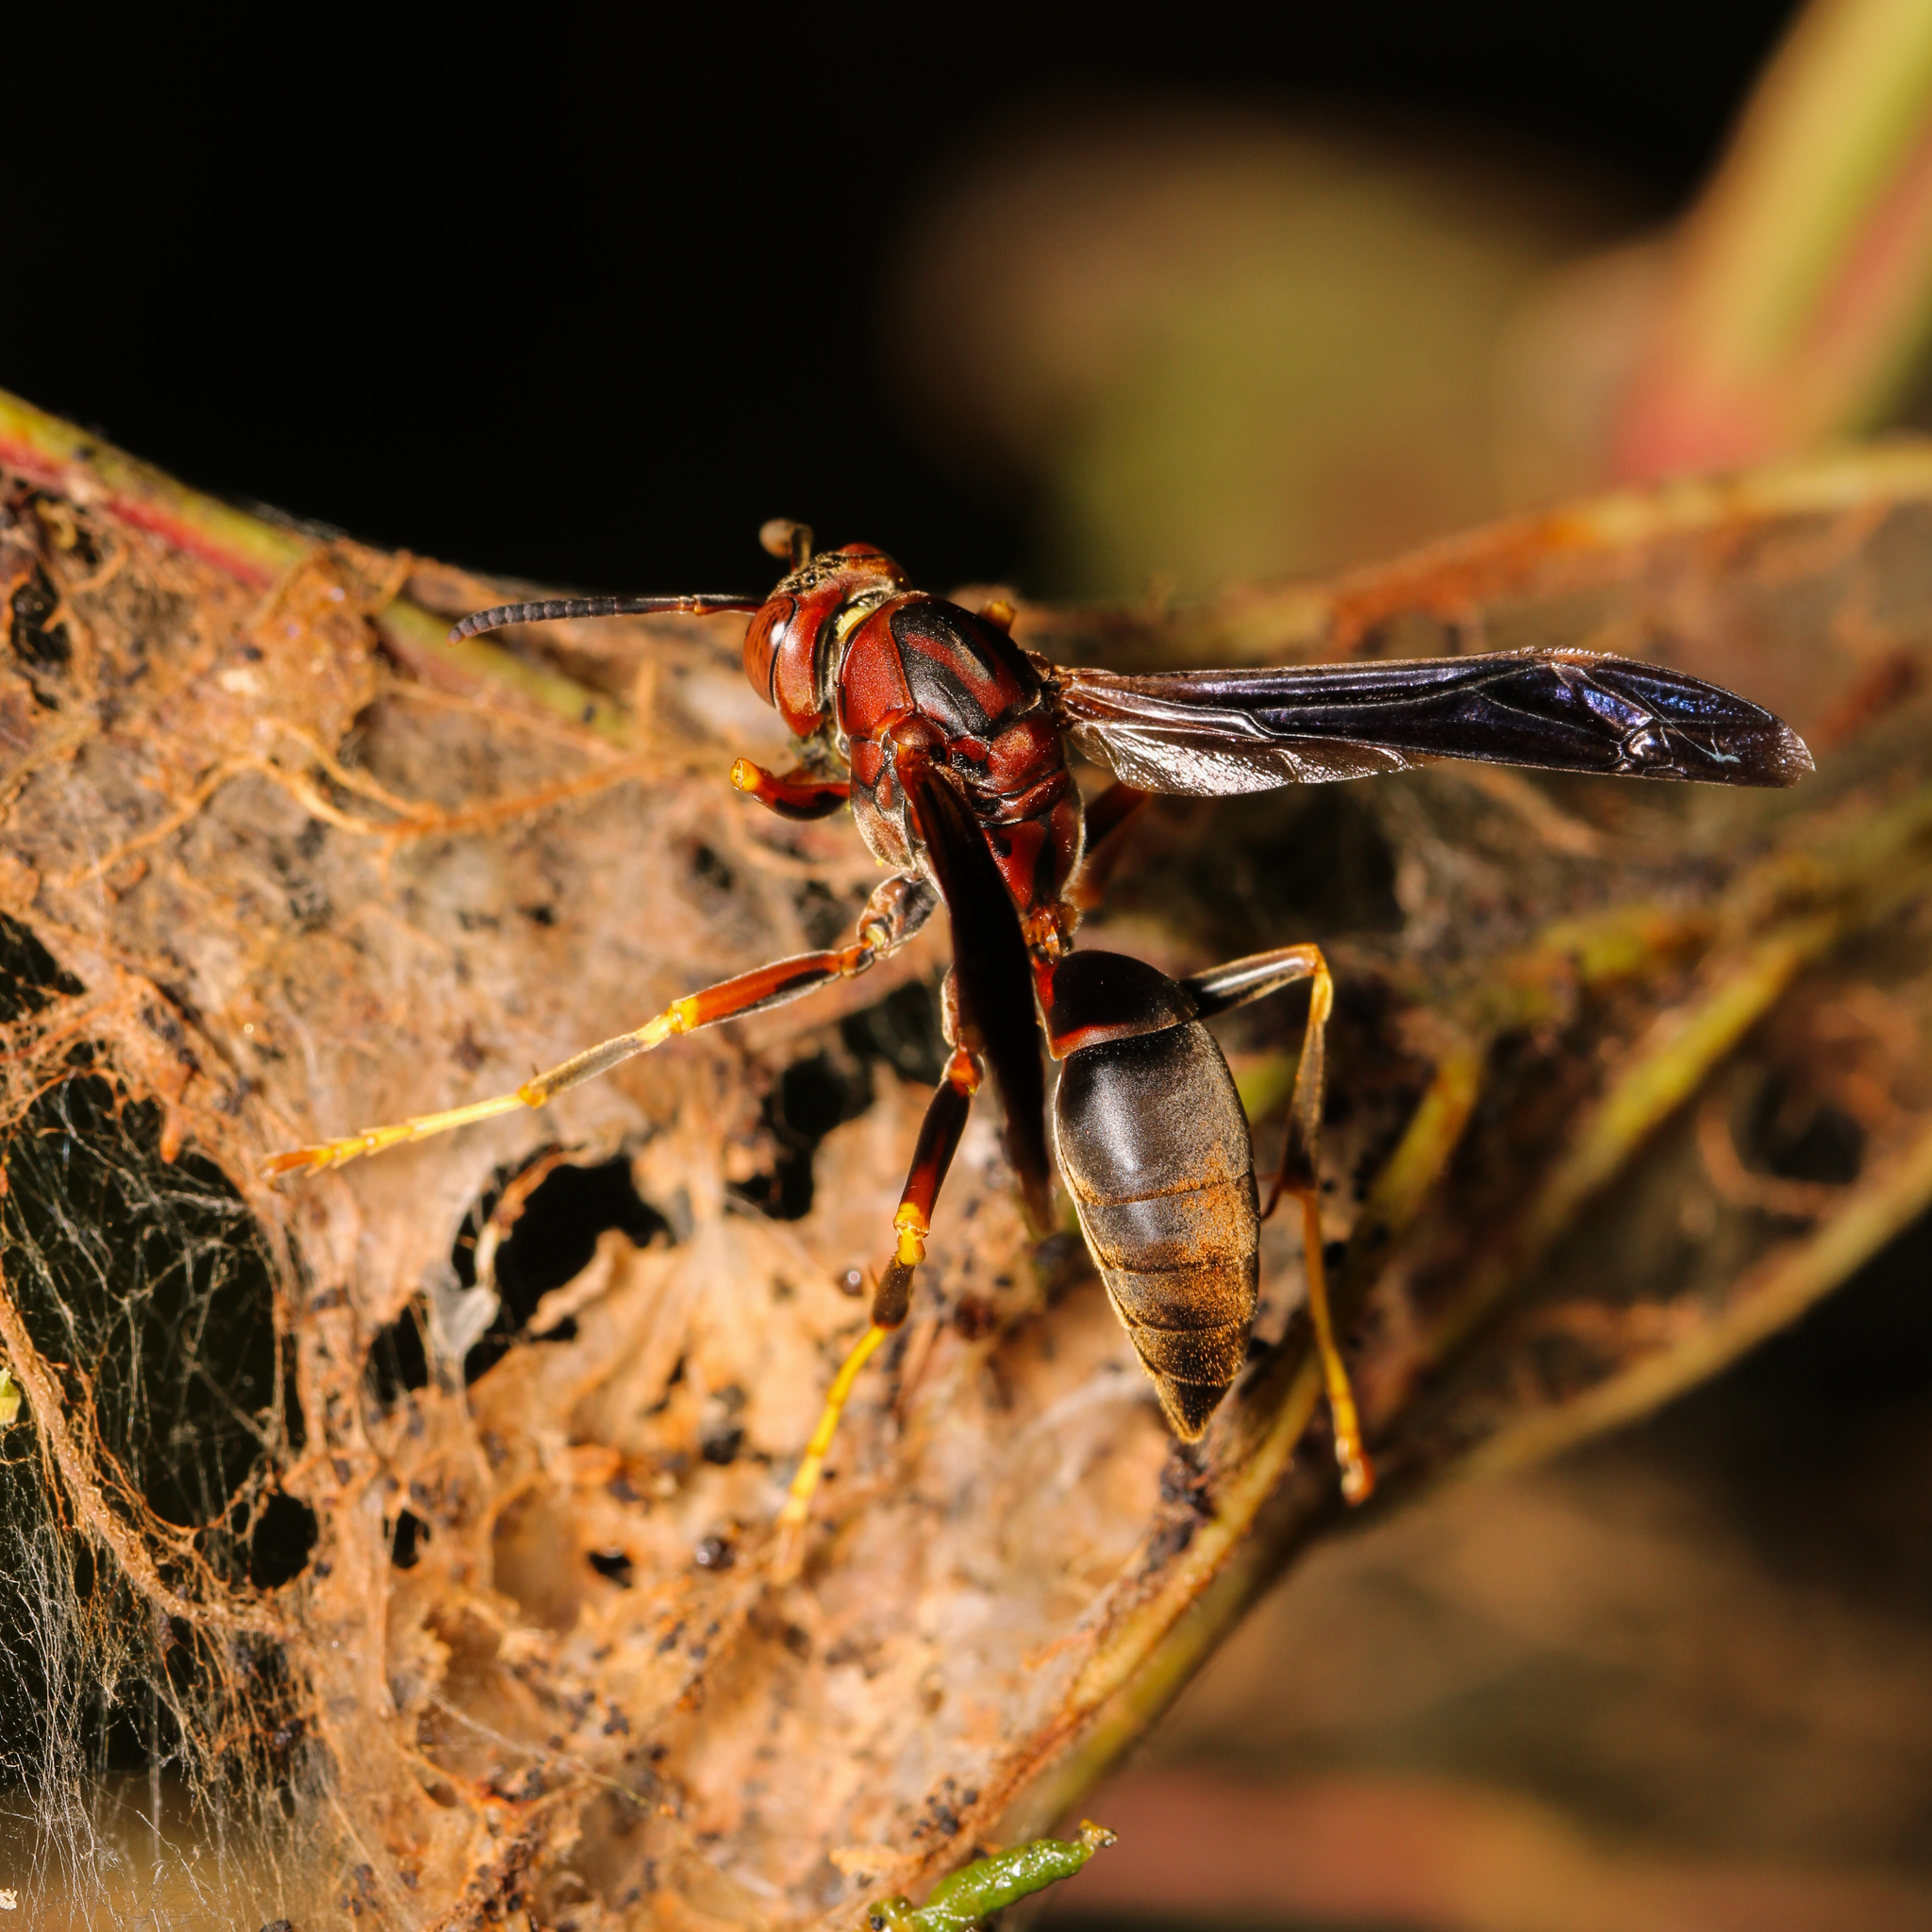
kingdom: Animalia
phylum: Arthropoda
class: Insecta
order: Hymenoptera
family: Eumenidae
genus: Polistes
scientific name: Polistes metricus
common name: Metric paper wasp
